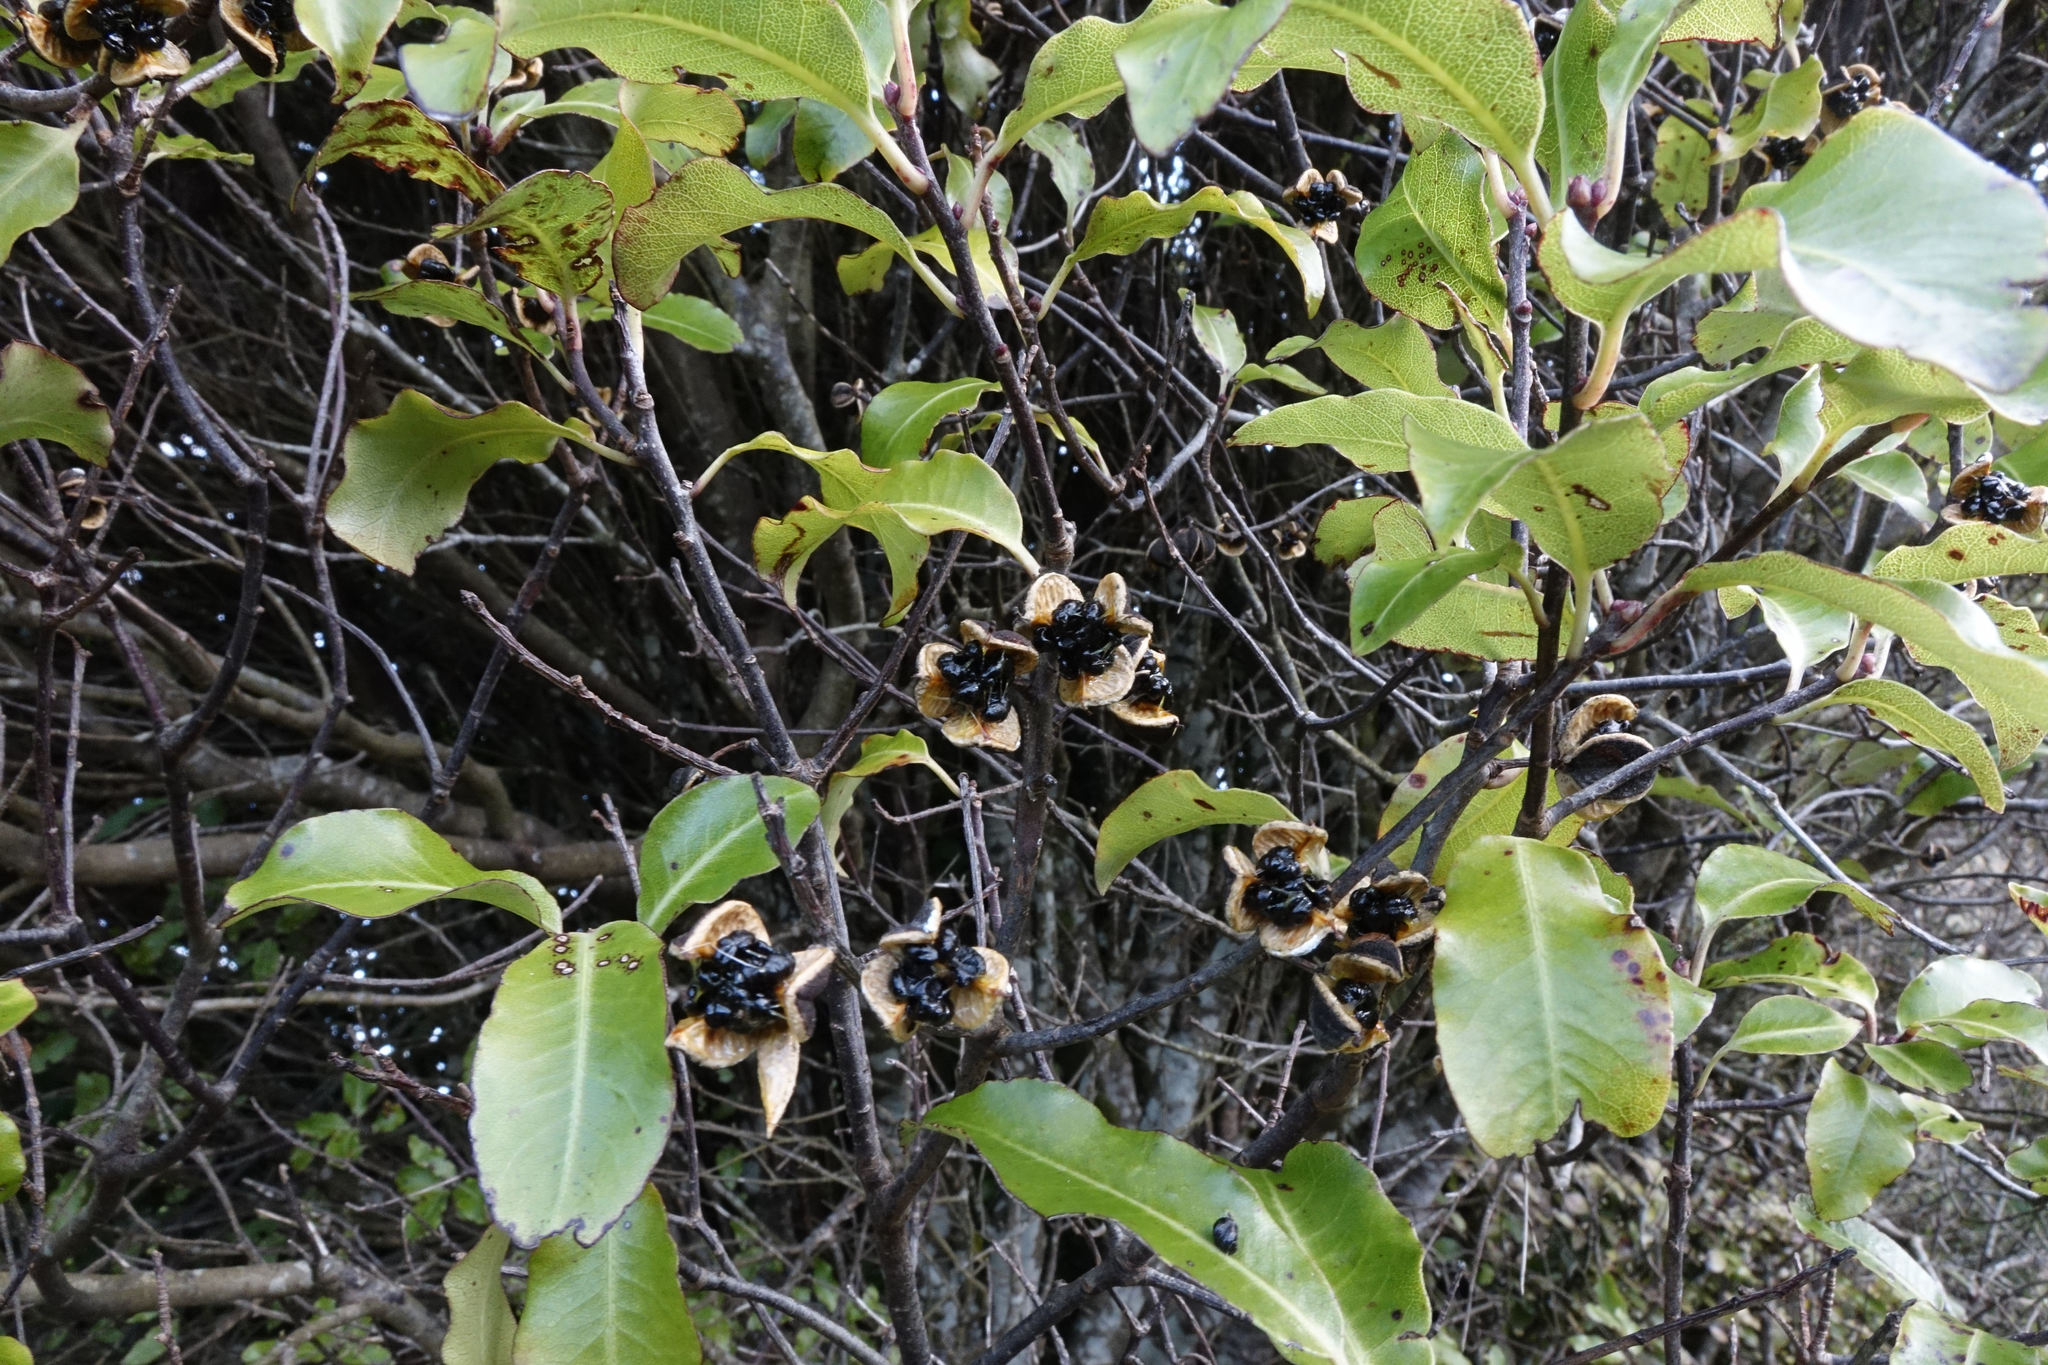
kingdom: Plantae
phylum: Tracheophyta
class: Magnoliopsida
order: Apiales
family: Pittosporaceae
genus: Pittosporum
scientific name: Pittosporum tenuifolium
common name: Kohuhu
